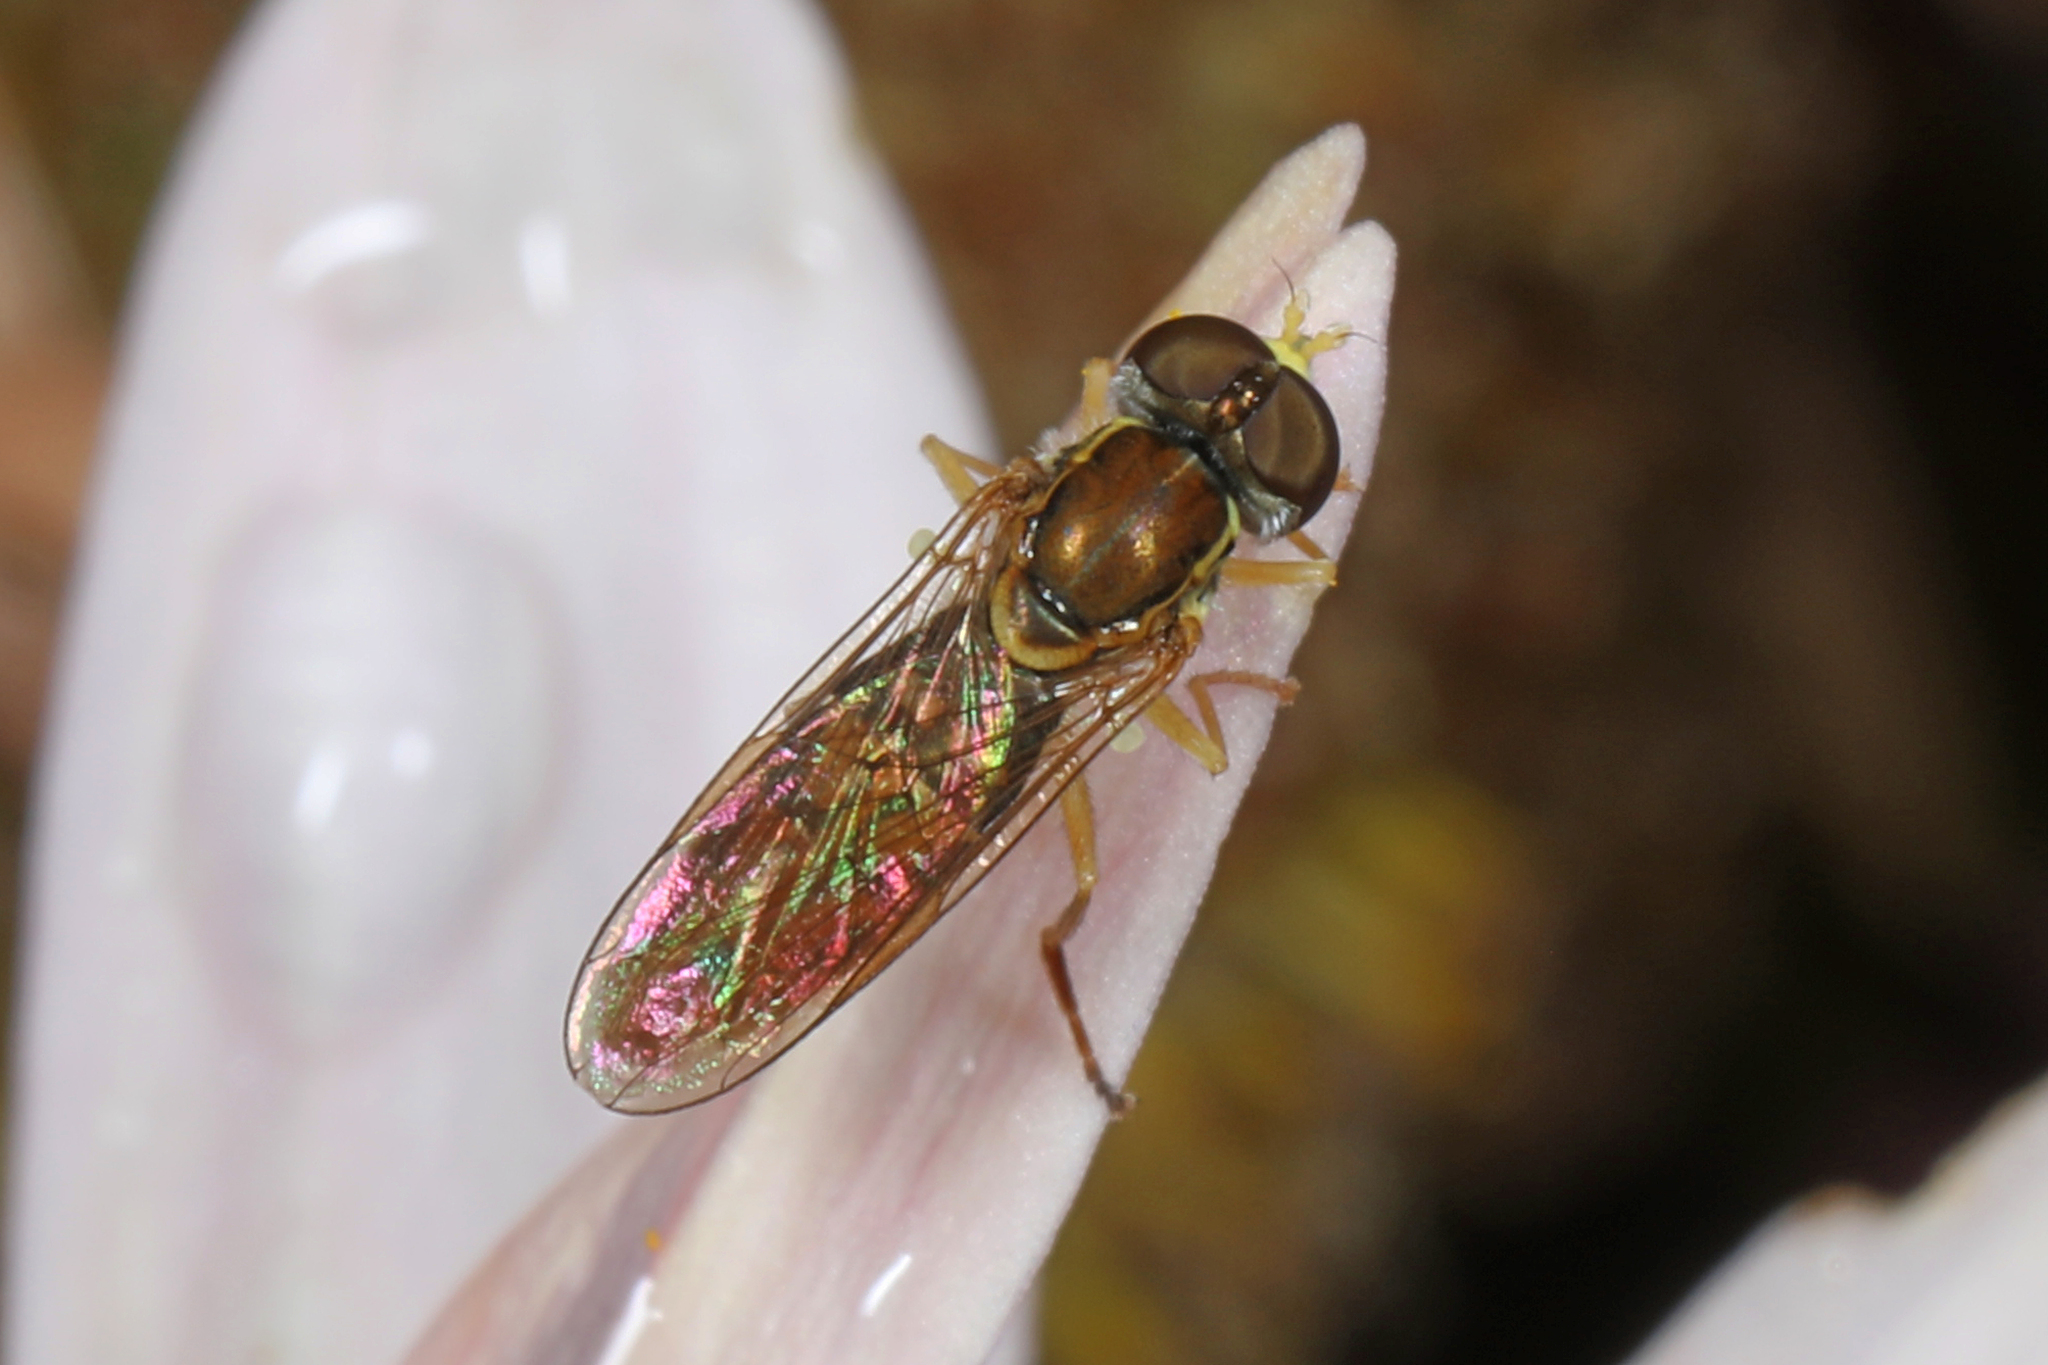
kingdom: Animalia
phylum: Arthropoda
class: Insecta
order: Diptera
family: Syrphidae
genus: Toxomerus
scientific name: Toxomerus marginatus
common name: Syrphid fly
